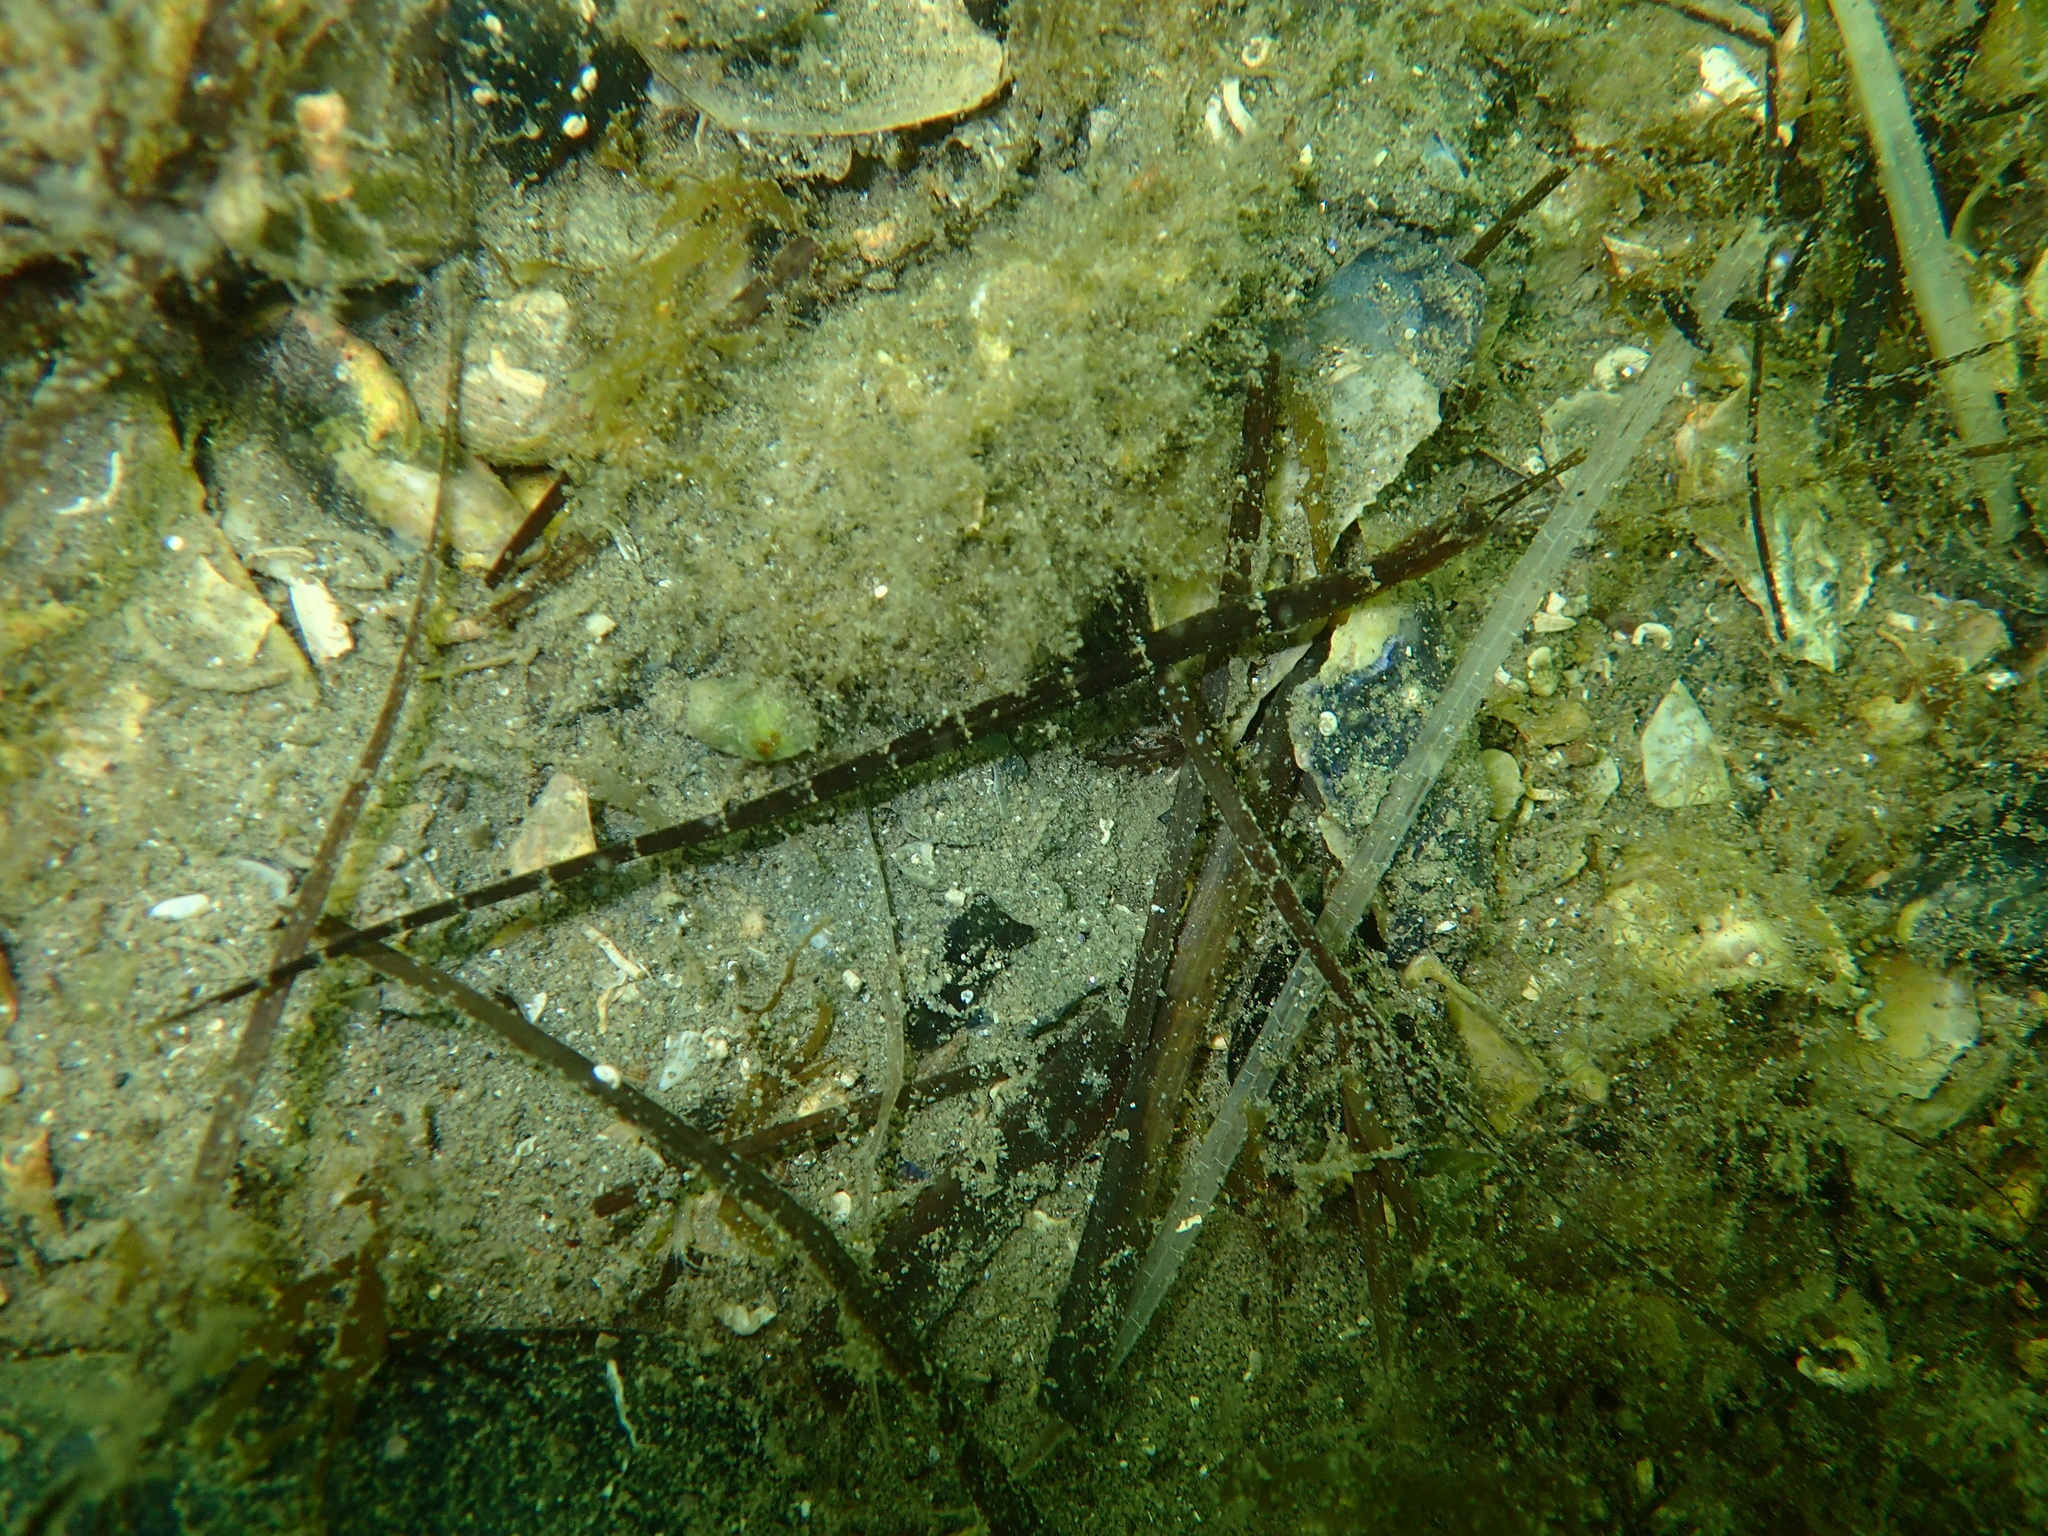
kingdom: Animalia
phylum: Chordata
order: Syngnathiformes
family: Syngnathidae
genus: Syngnathus
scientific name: Syngnathus
